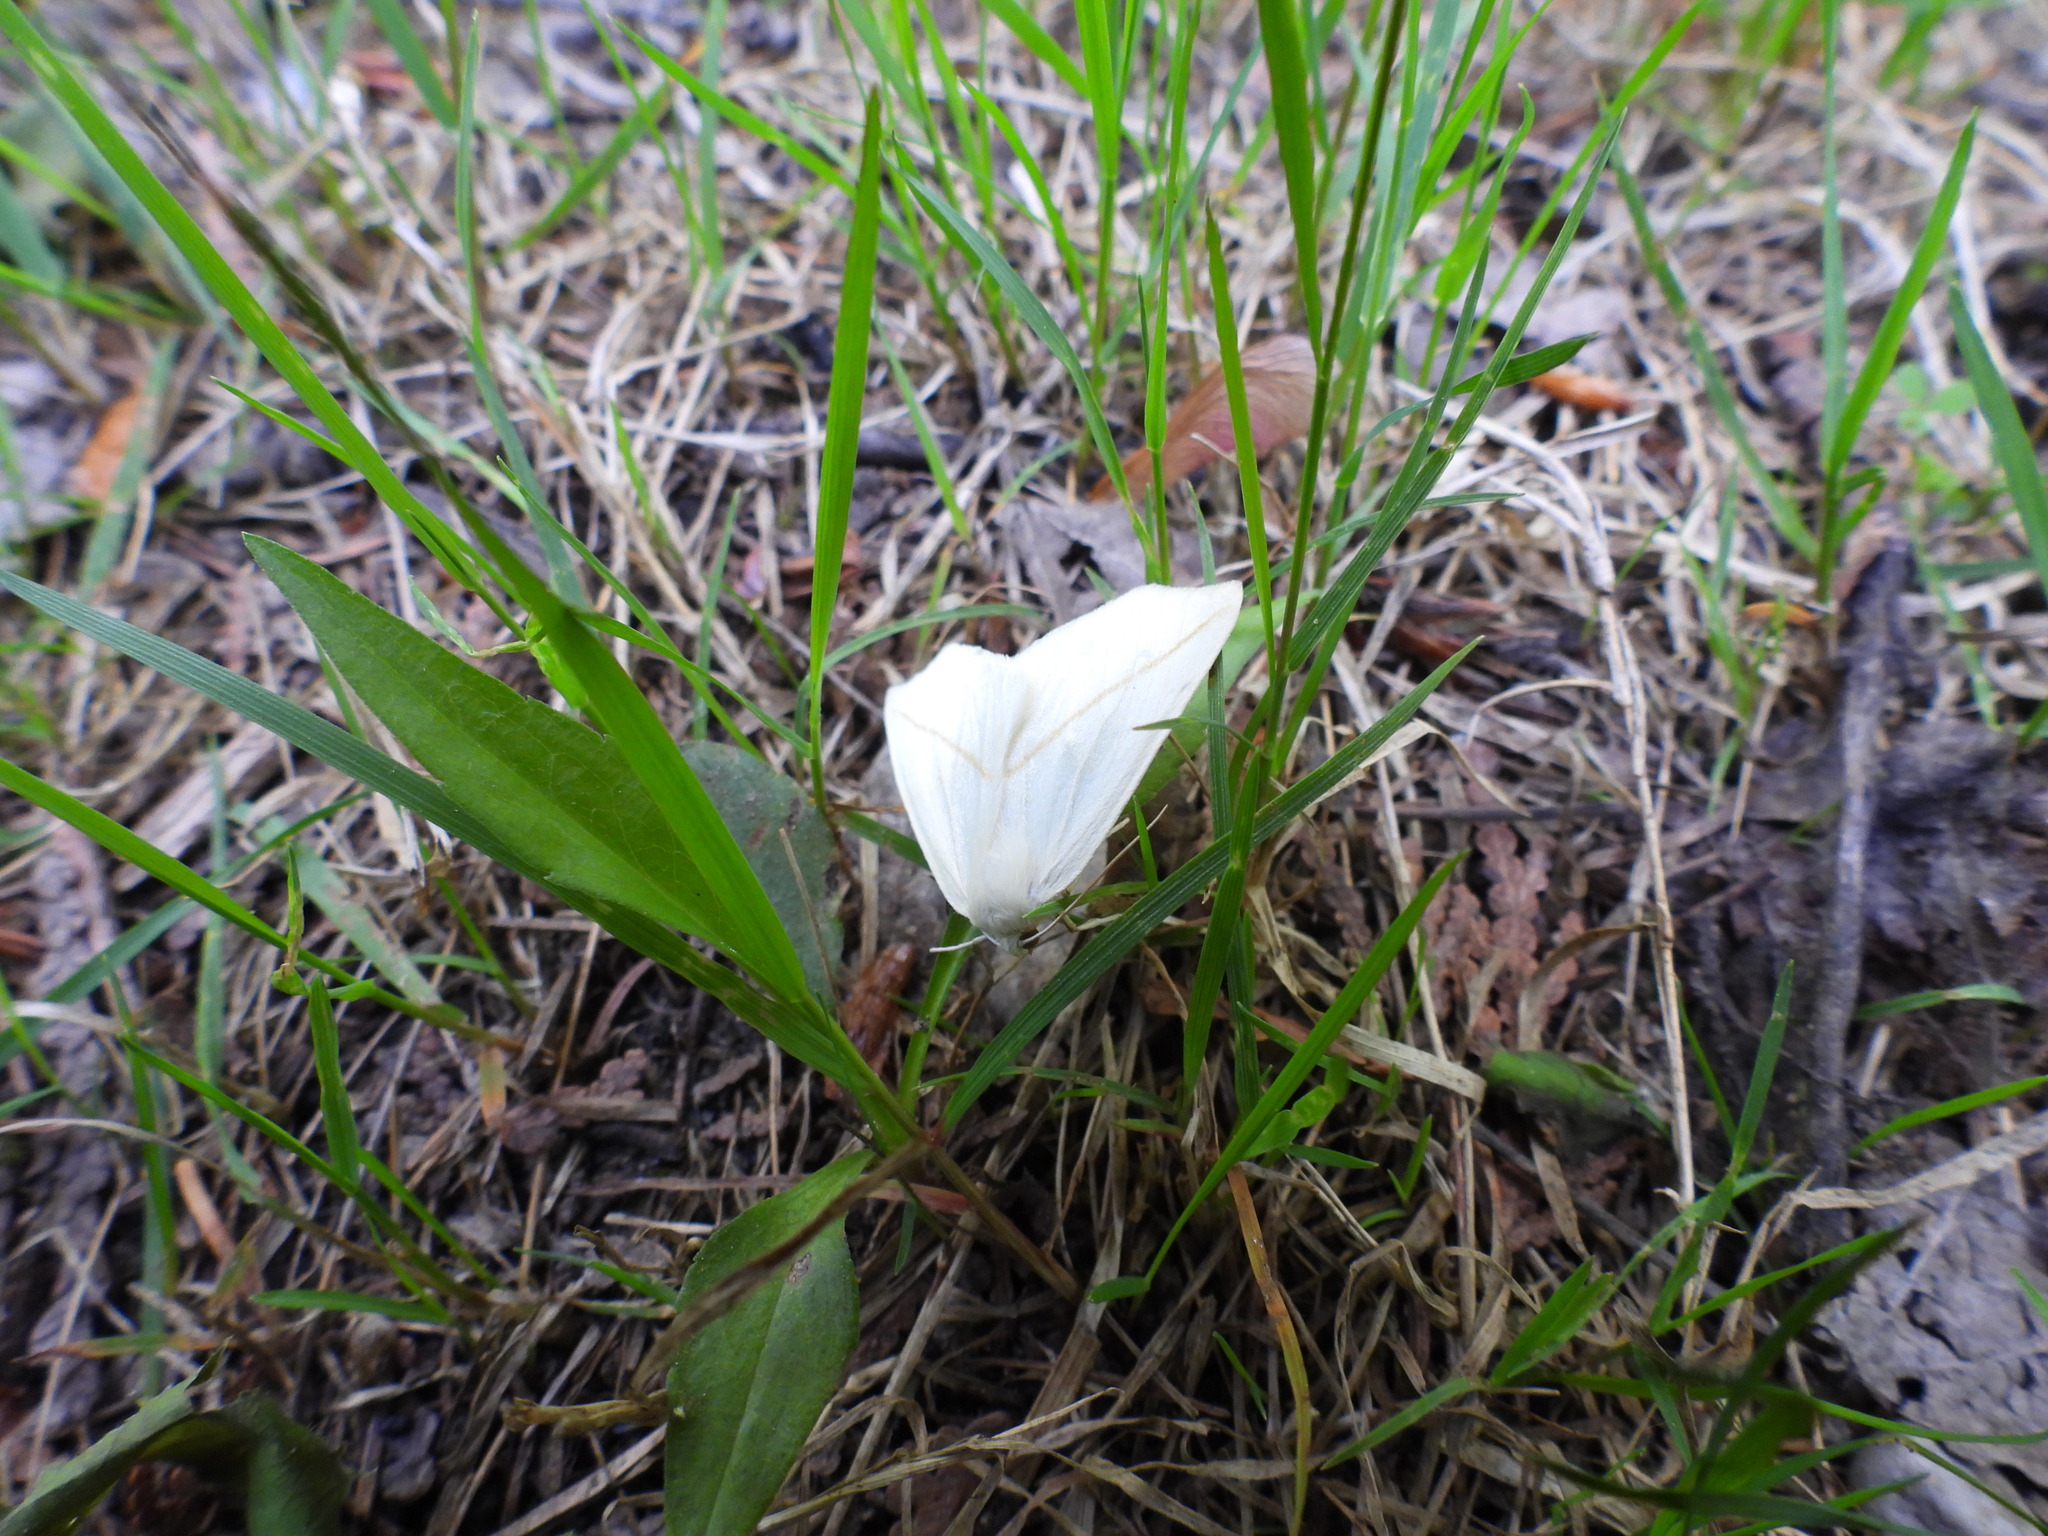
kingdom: Animalia
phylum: Arthropoda
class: Insecta
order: Lepidoptera
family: Geometridae
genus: Tetracis
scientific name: Tetracis cachexiata
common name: White slant-line
